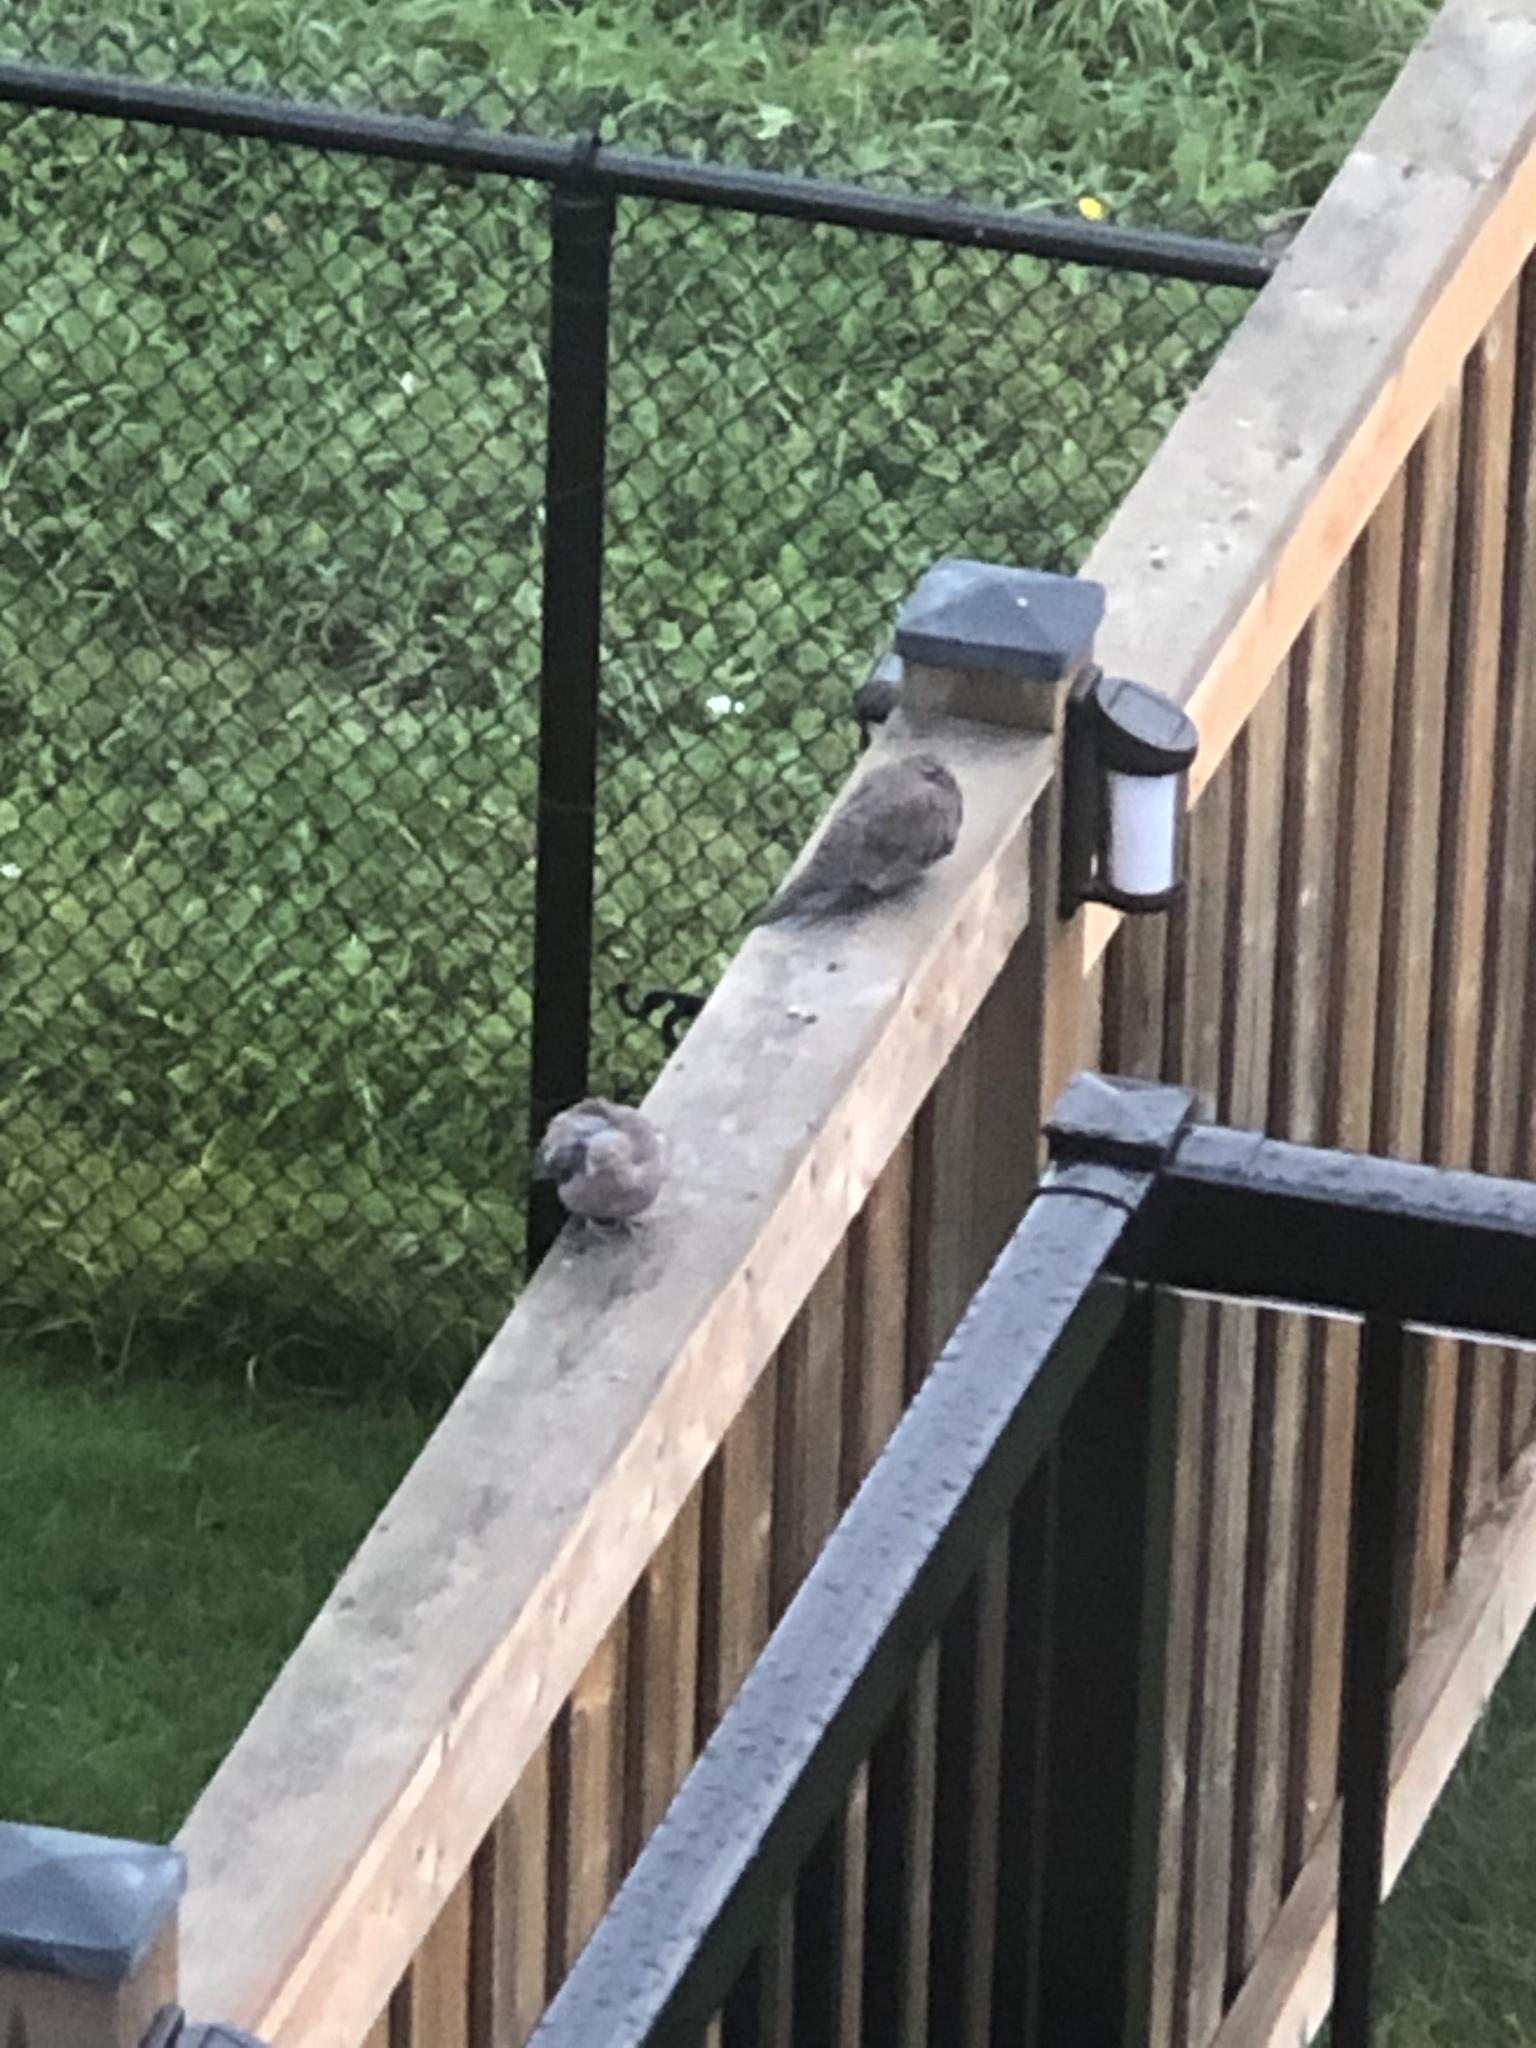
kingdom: Animalia
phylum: Chordata
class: Aves
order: Columbiformes
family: Columbidae
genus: Zenaida
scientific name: Zenaida macroura
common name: Mourning dove
